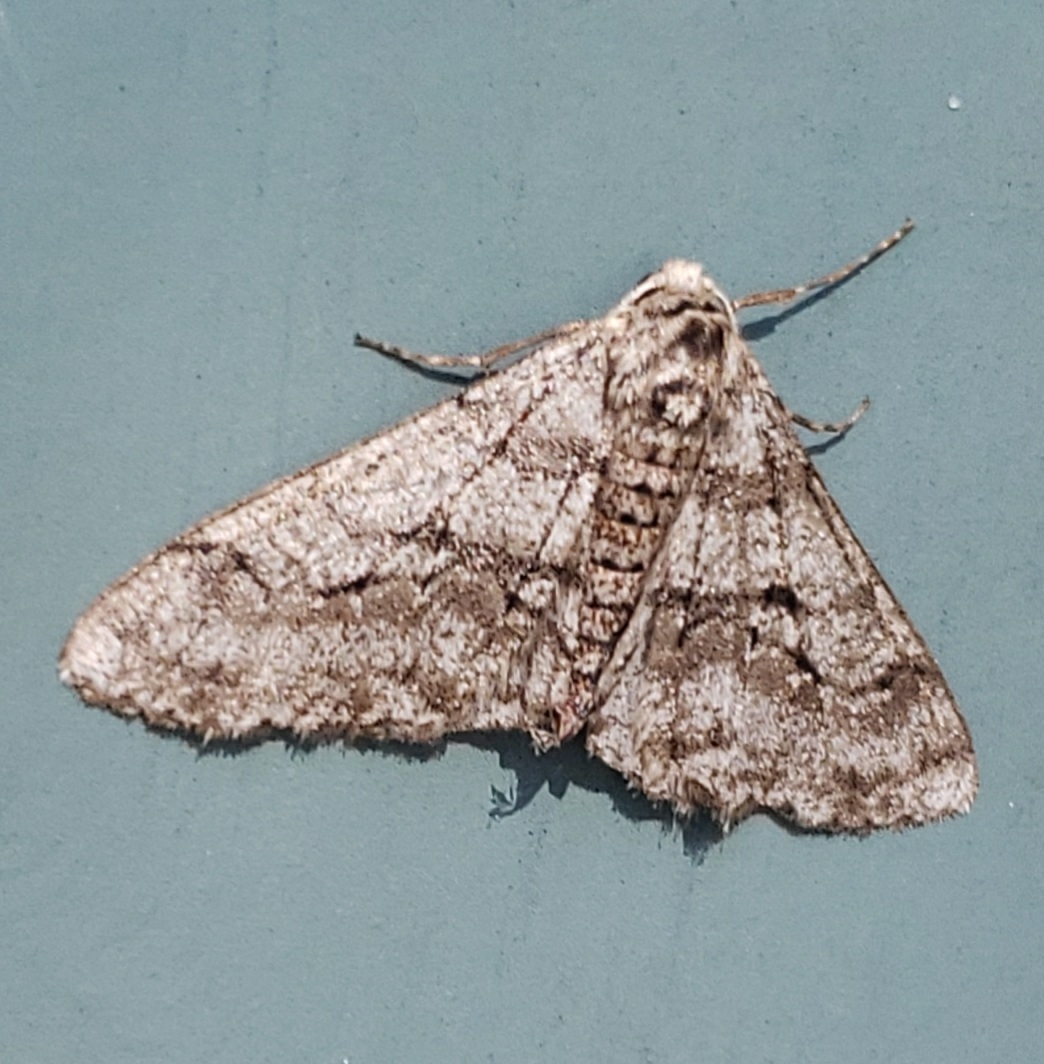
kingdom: Animalia
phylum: Arthropoda
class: Insecta
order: Lepidoptera
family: Geometridae
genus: Phigalia
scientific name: Phigalia titea
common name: Spiny looper
